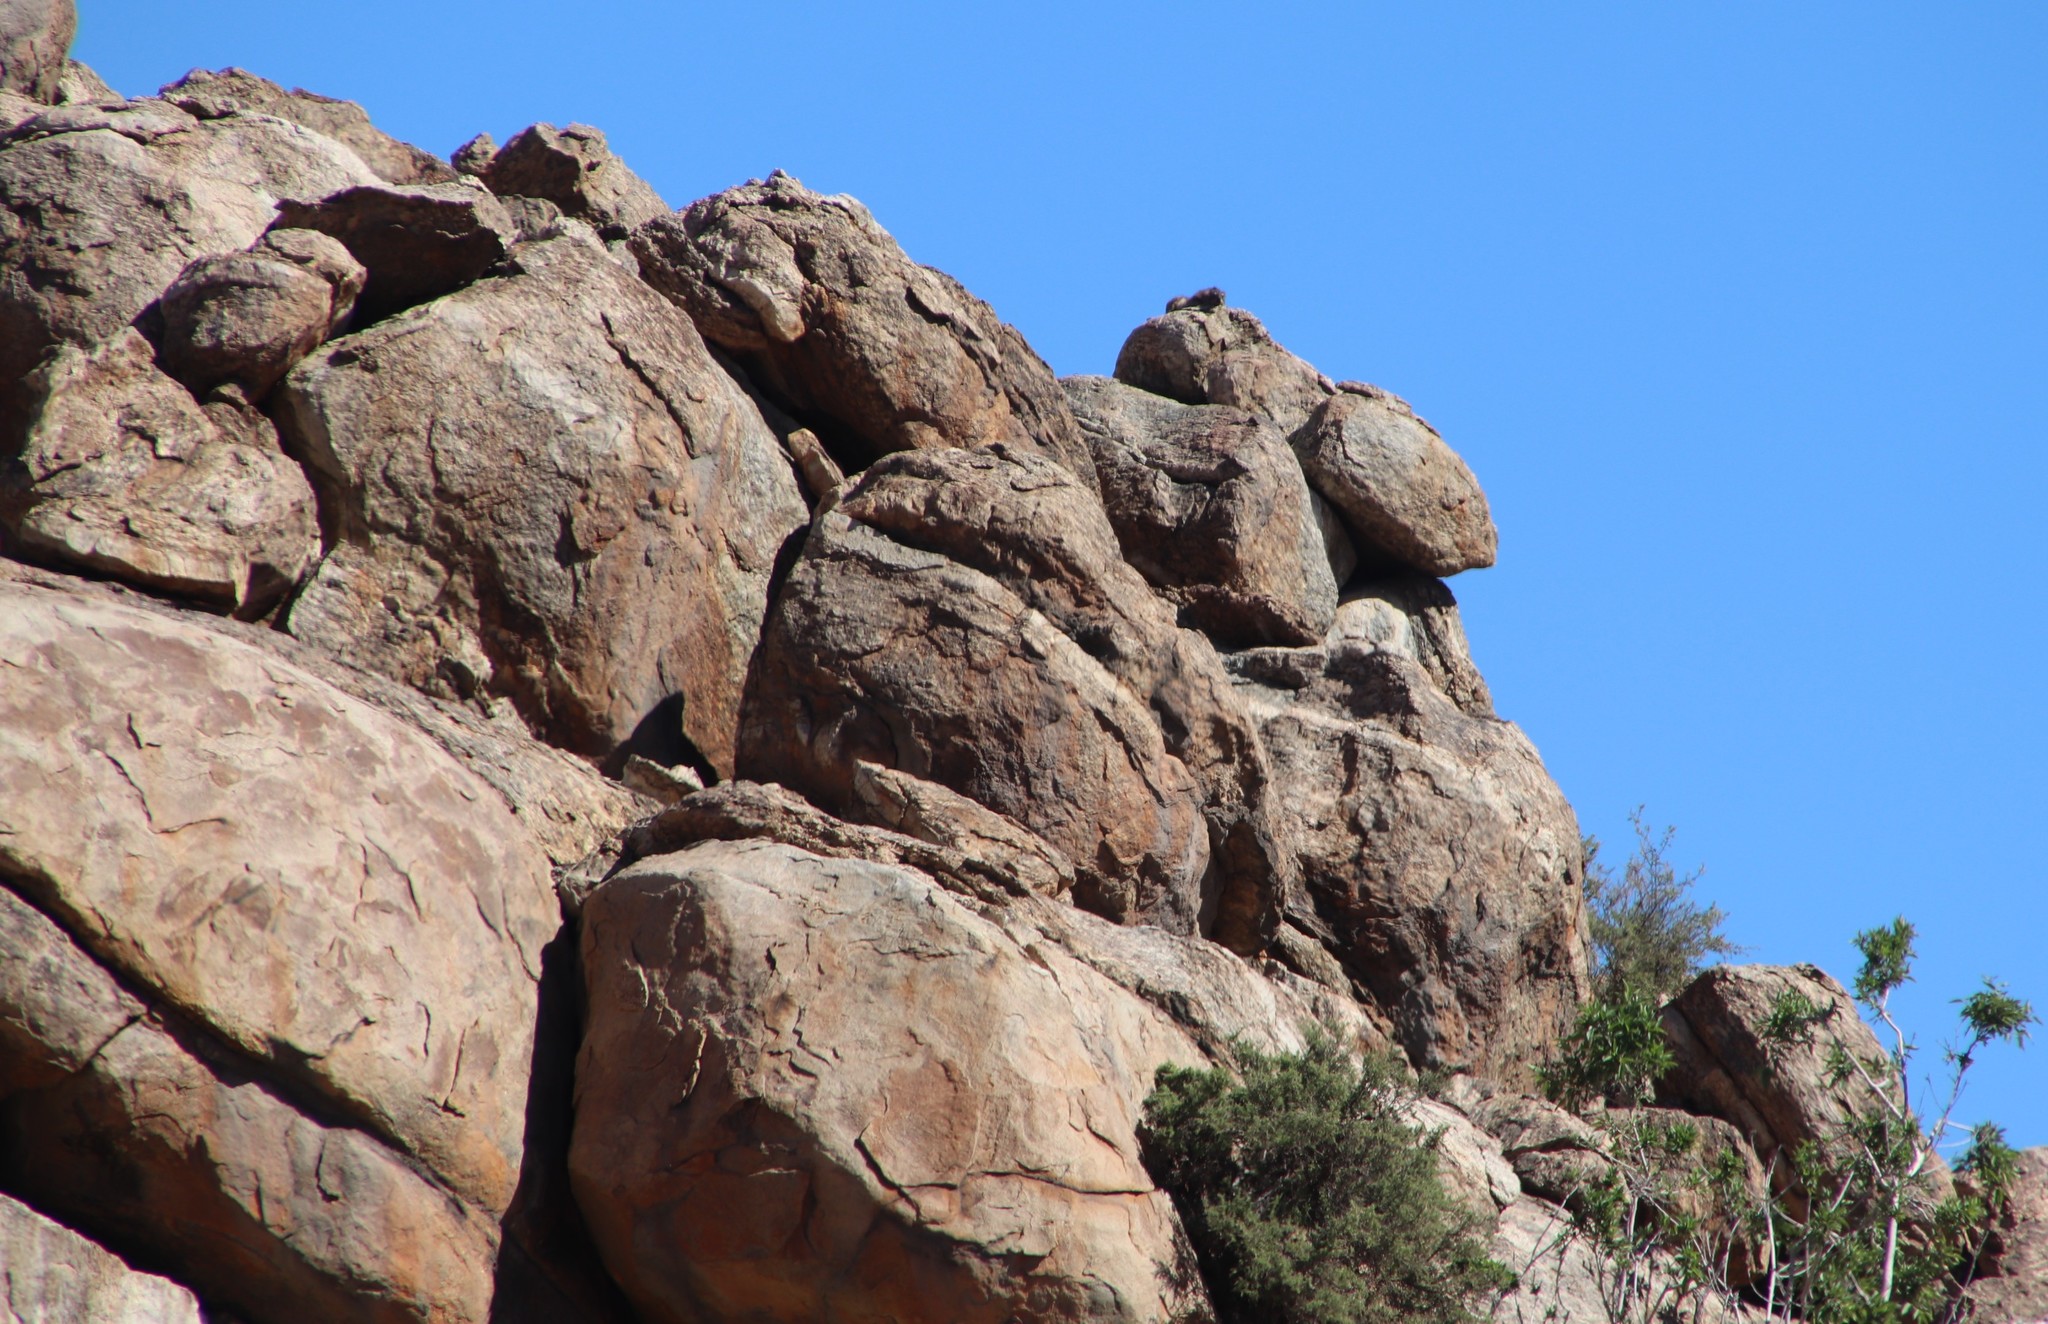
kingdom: Animalia
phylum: Chordata
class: Mammalia
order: Hyracoidea
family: Procaviidae
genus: Procavia
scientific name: Procavia capensis
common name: Rock hyrax
